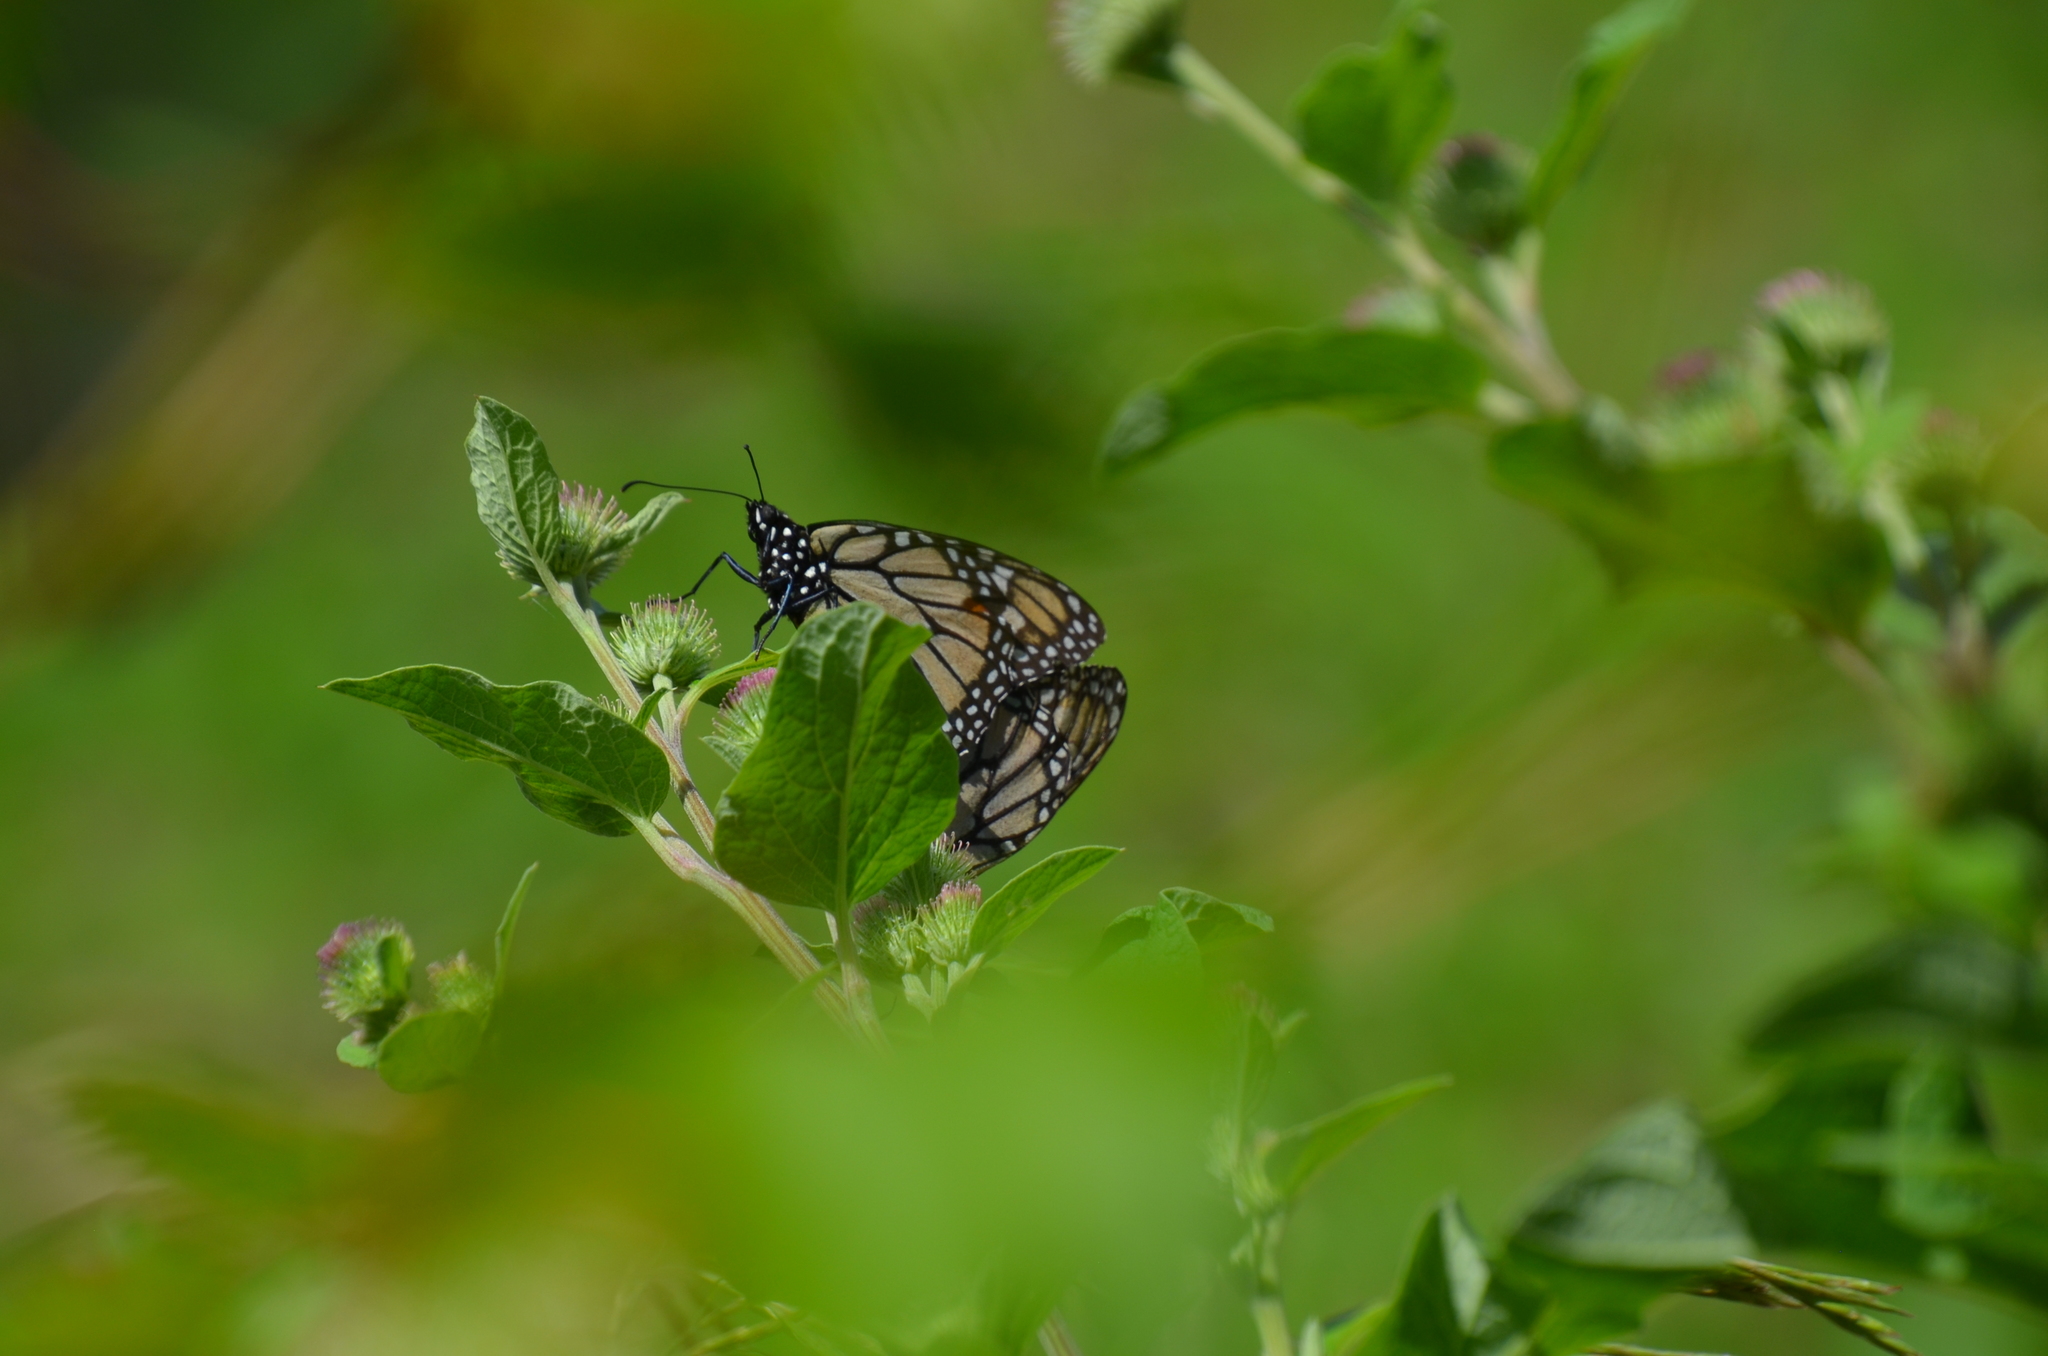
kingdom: Animalia
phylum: Arthropoda
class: Insecta
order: Lepidoptera
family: Nymphalidae
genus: Danaus
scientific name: Danaus plexippus
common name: Monarch
